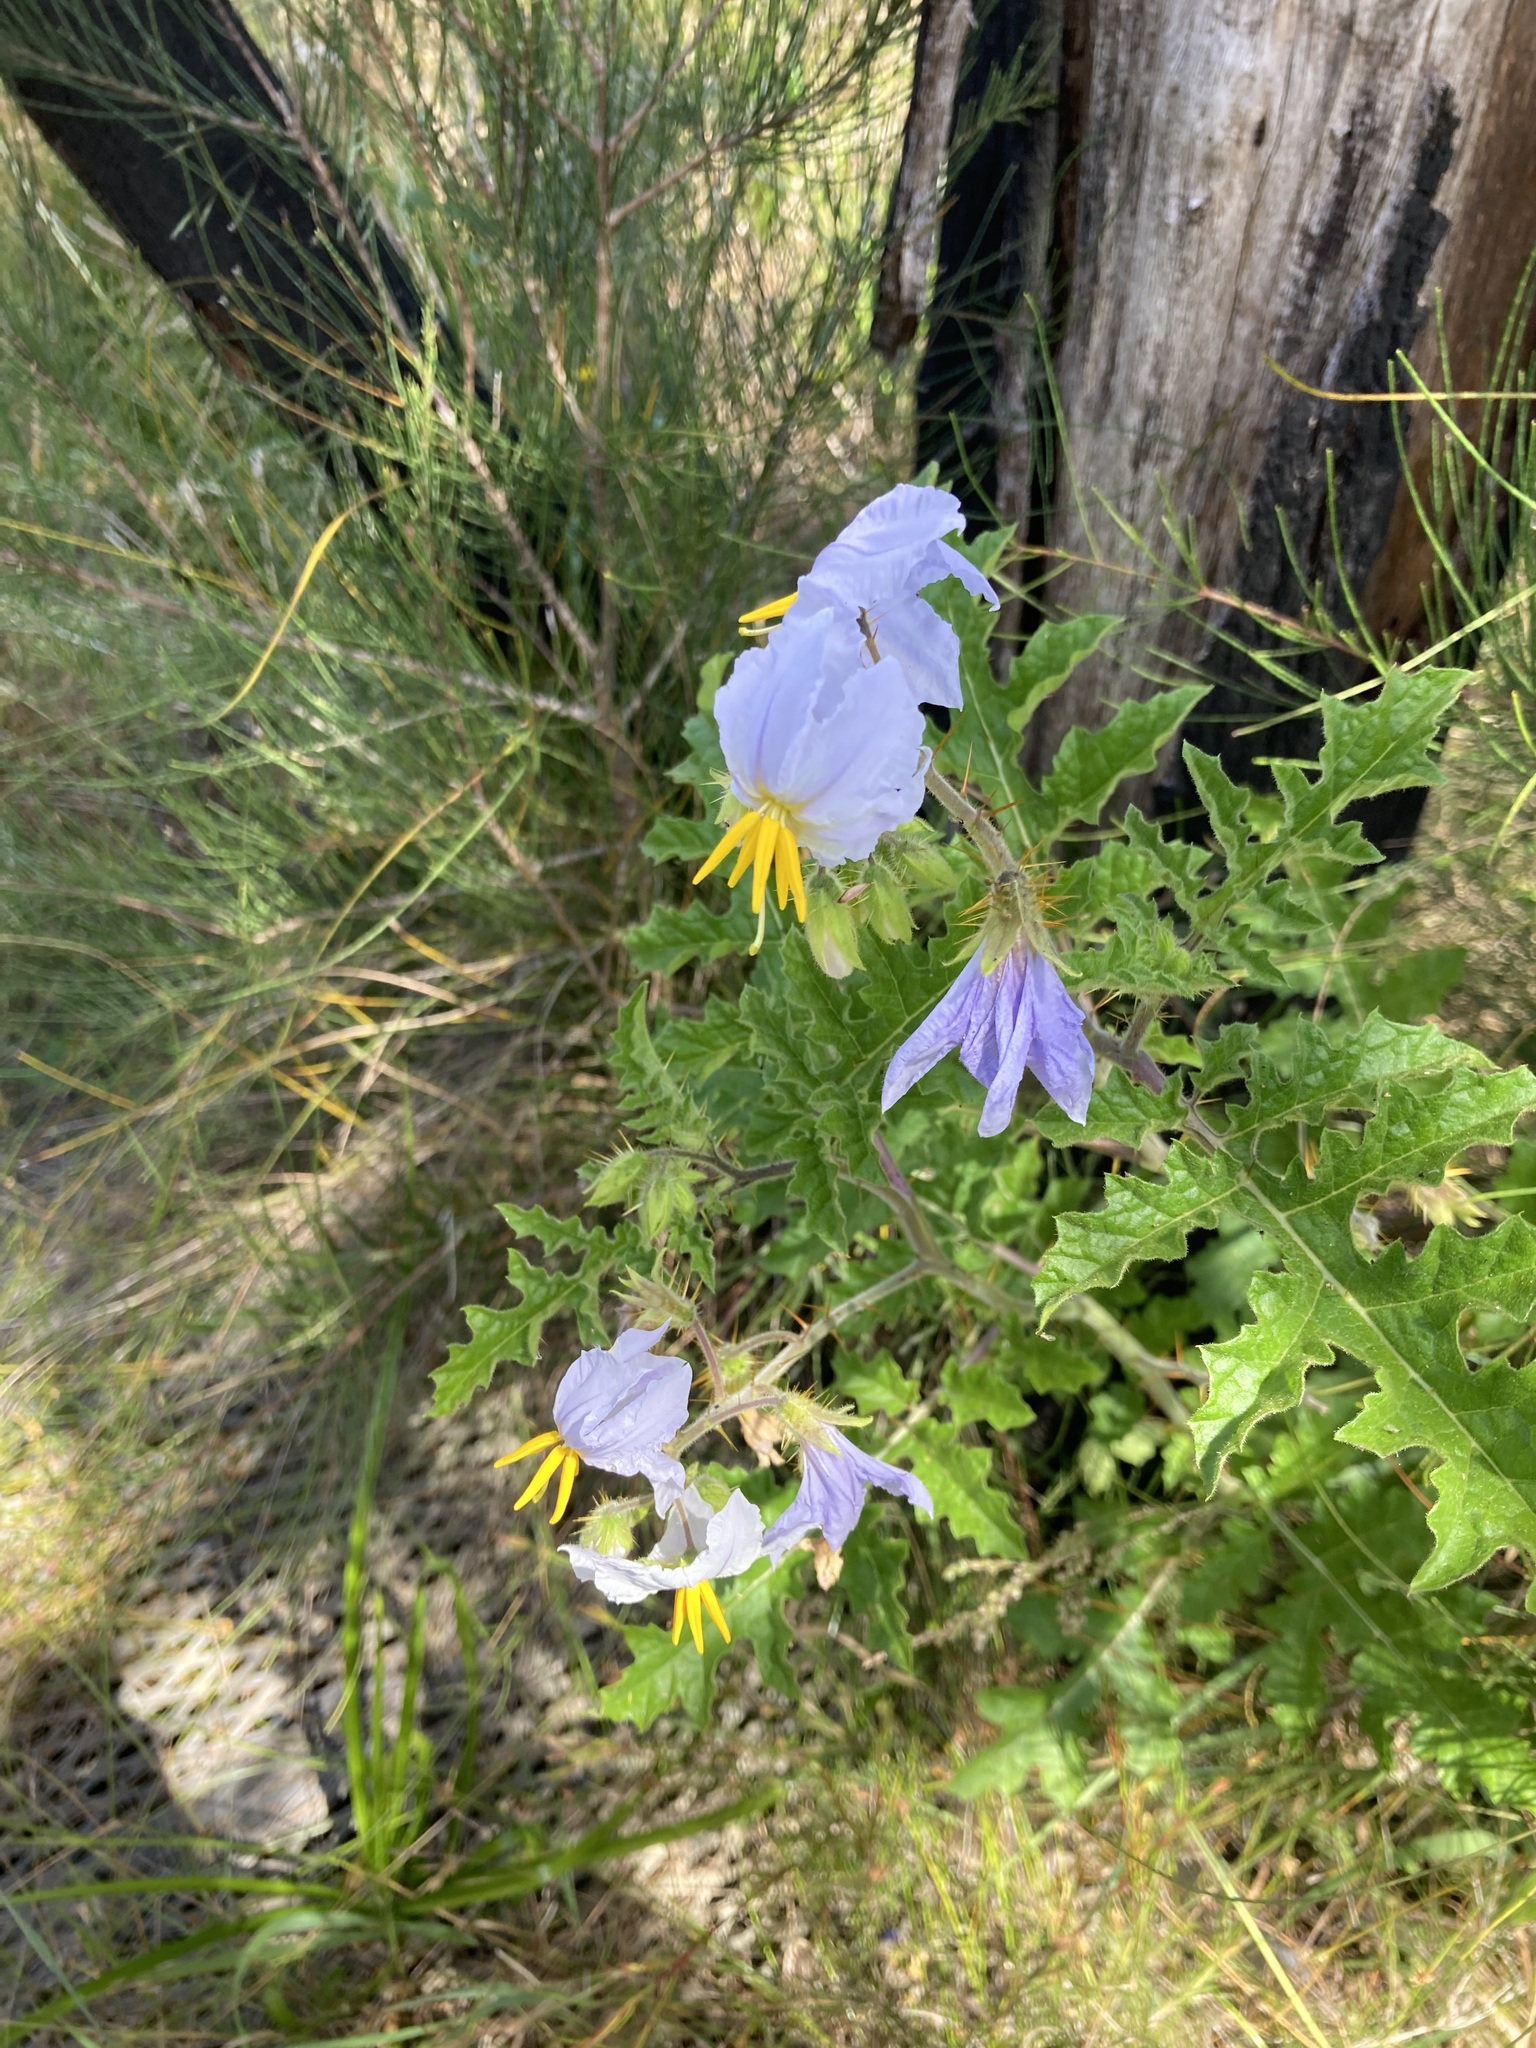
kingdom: Plantae
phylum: Tracheophyta
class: Magnoliopsida
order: Solanales
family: Solanaceae
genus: Solanum
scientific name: Solanum sisymbriifolium
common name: Red buffalo-bur
